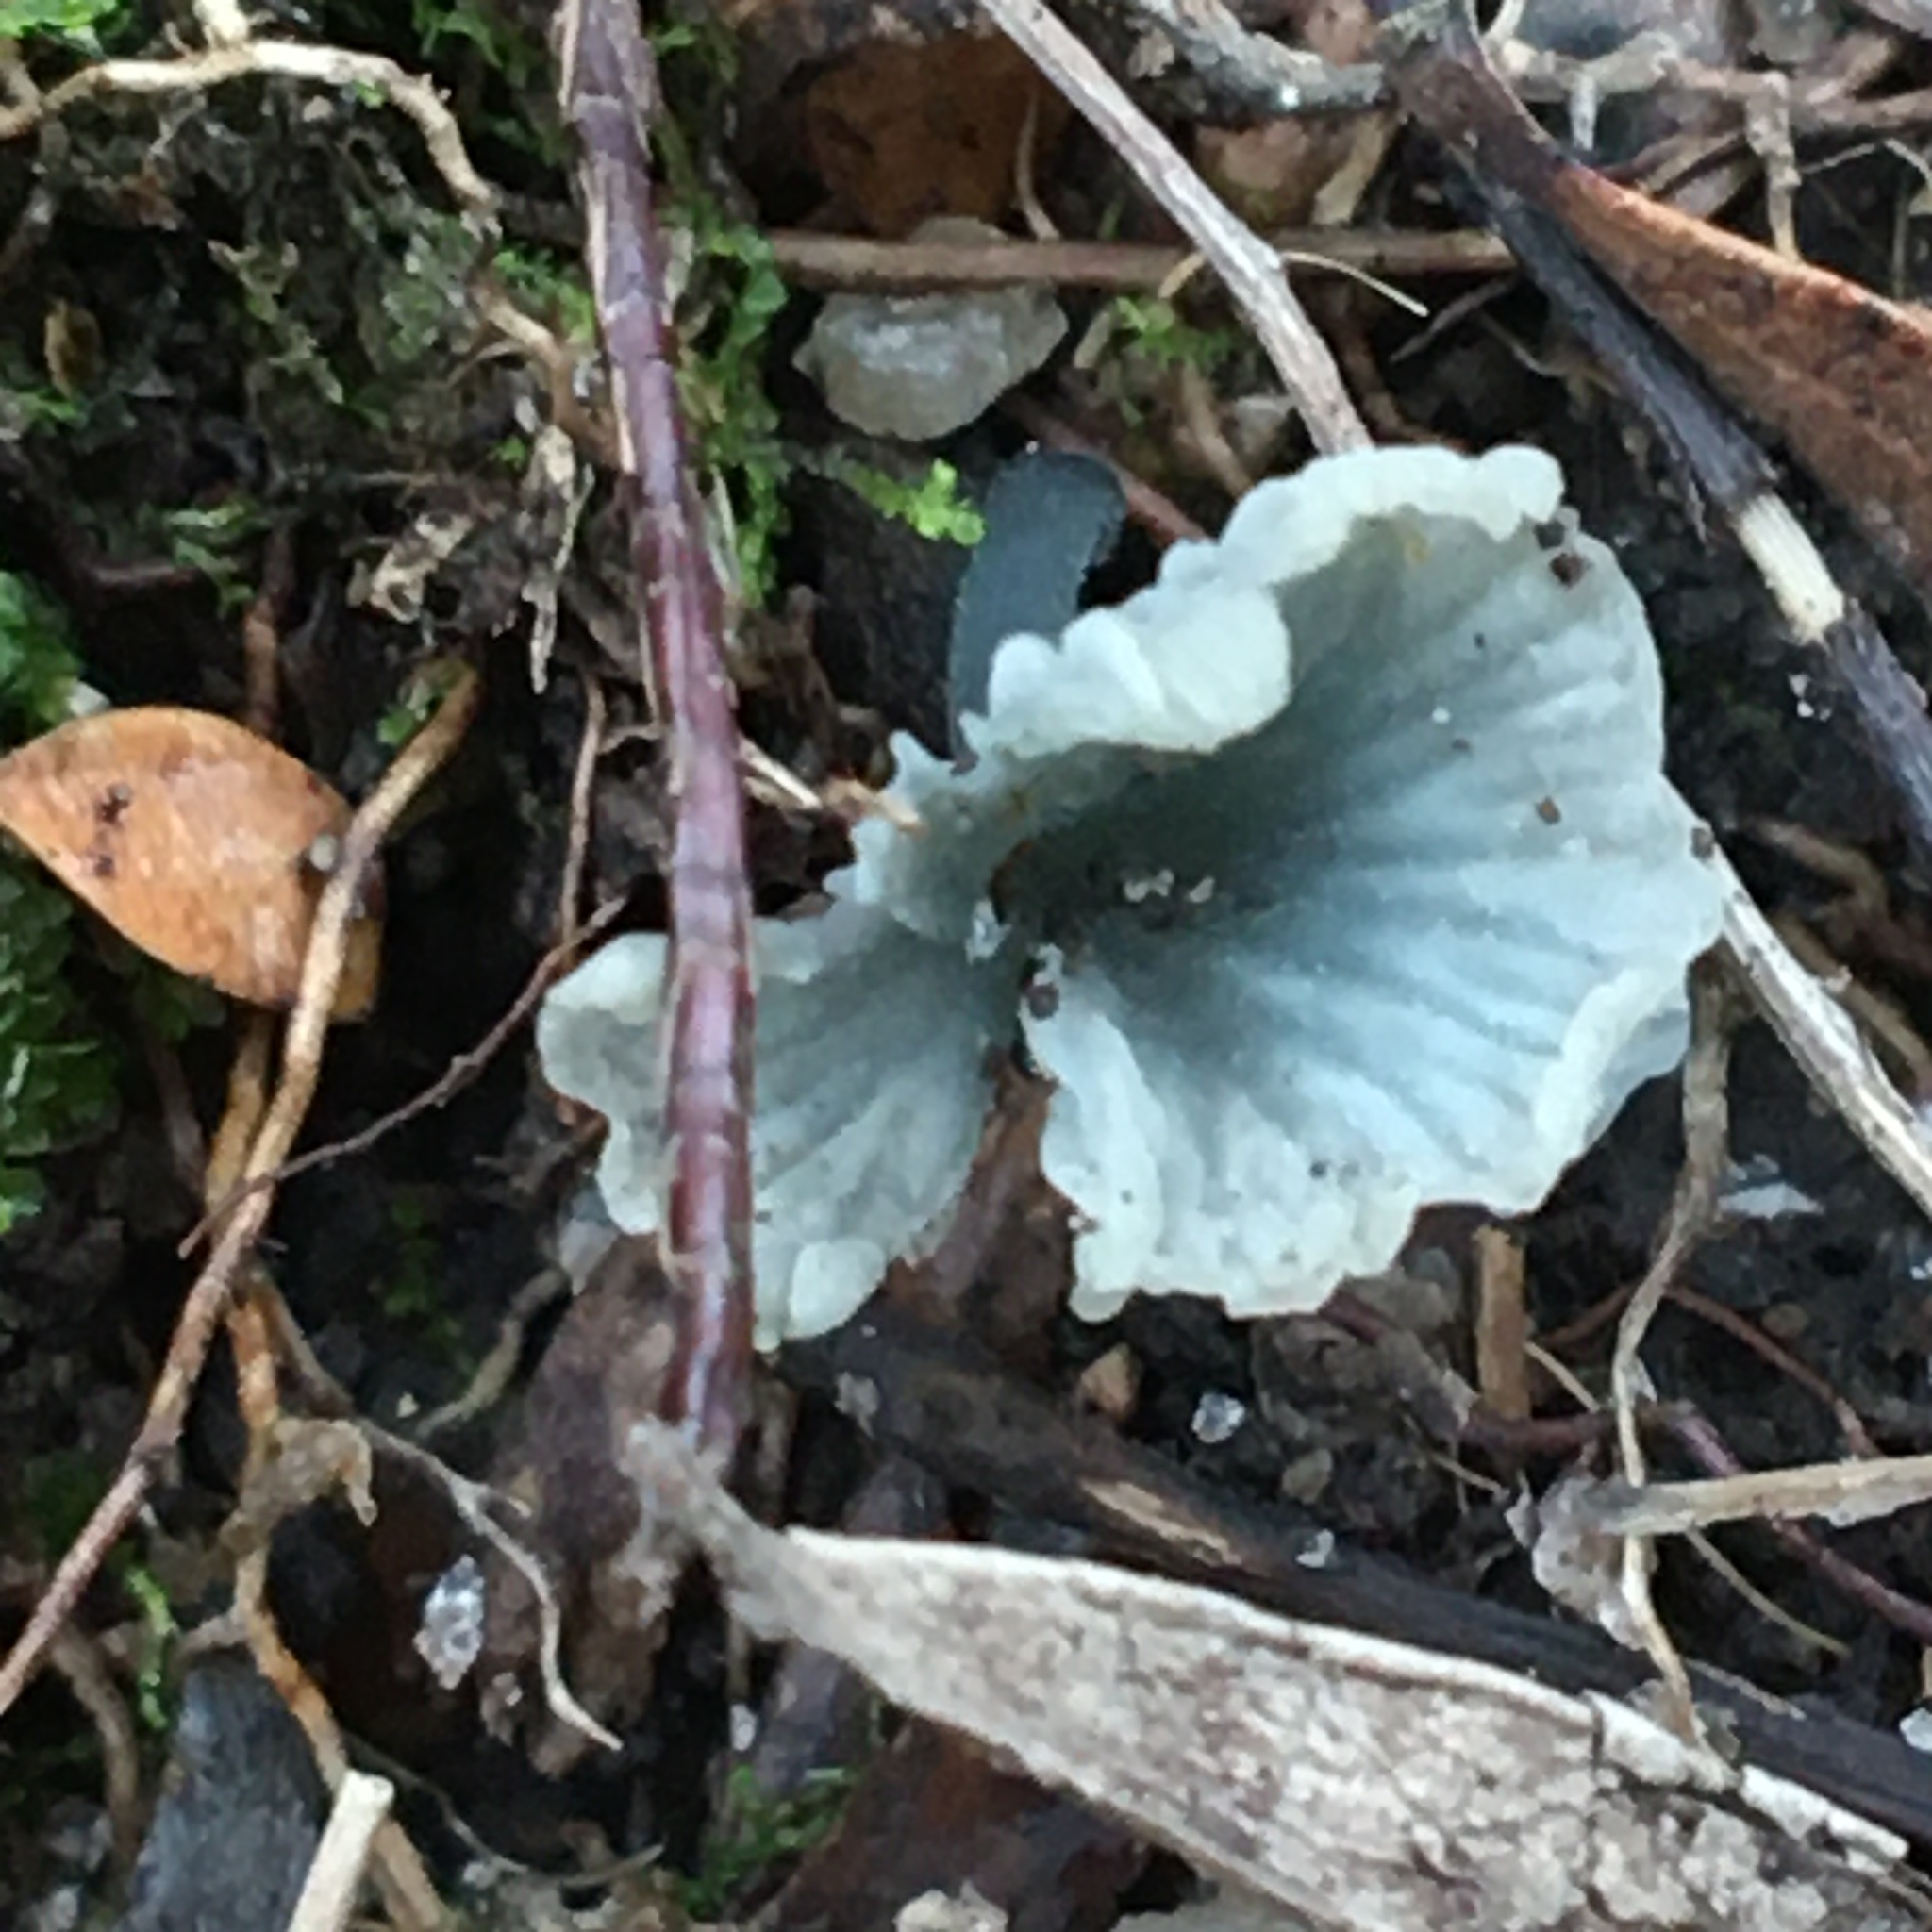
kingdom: Fungi
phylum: Basidiomycota
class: Agaricomycetes
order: Agaricales
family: Hygrophoraceae
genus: Arrhenia
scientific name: Arrhenia chlorocyanea
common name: Verdigris navel
